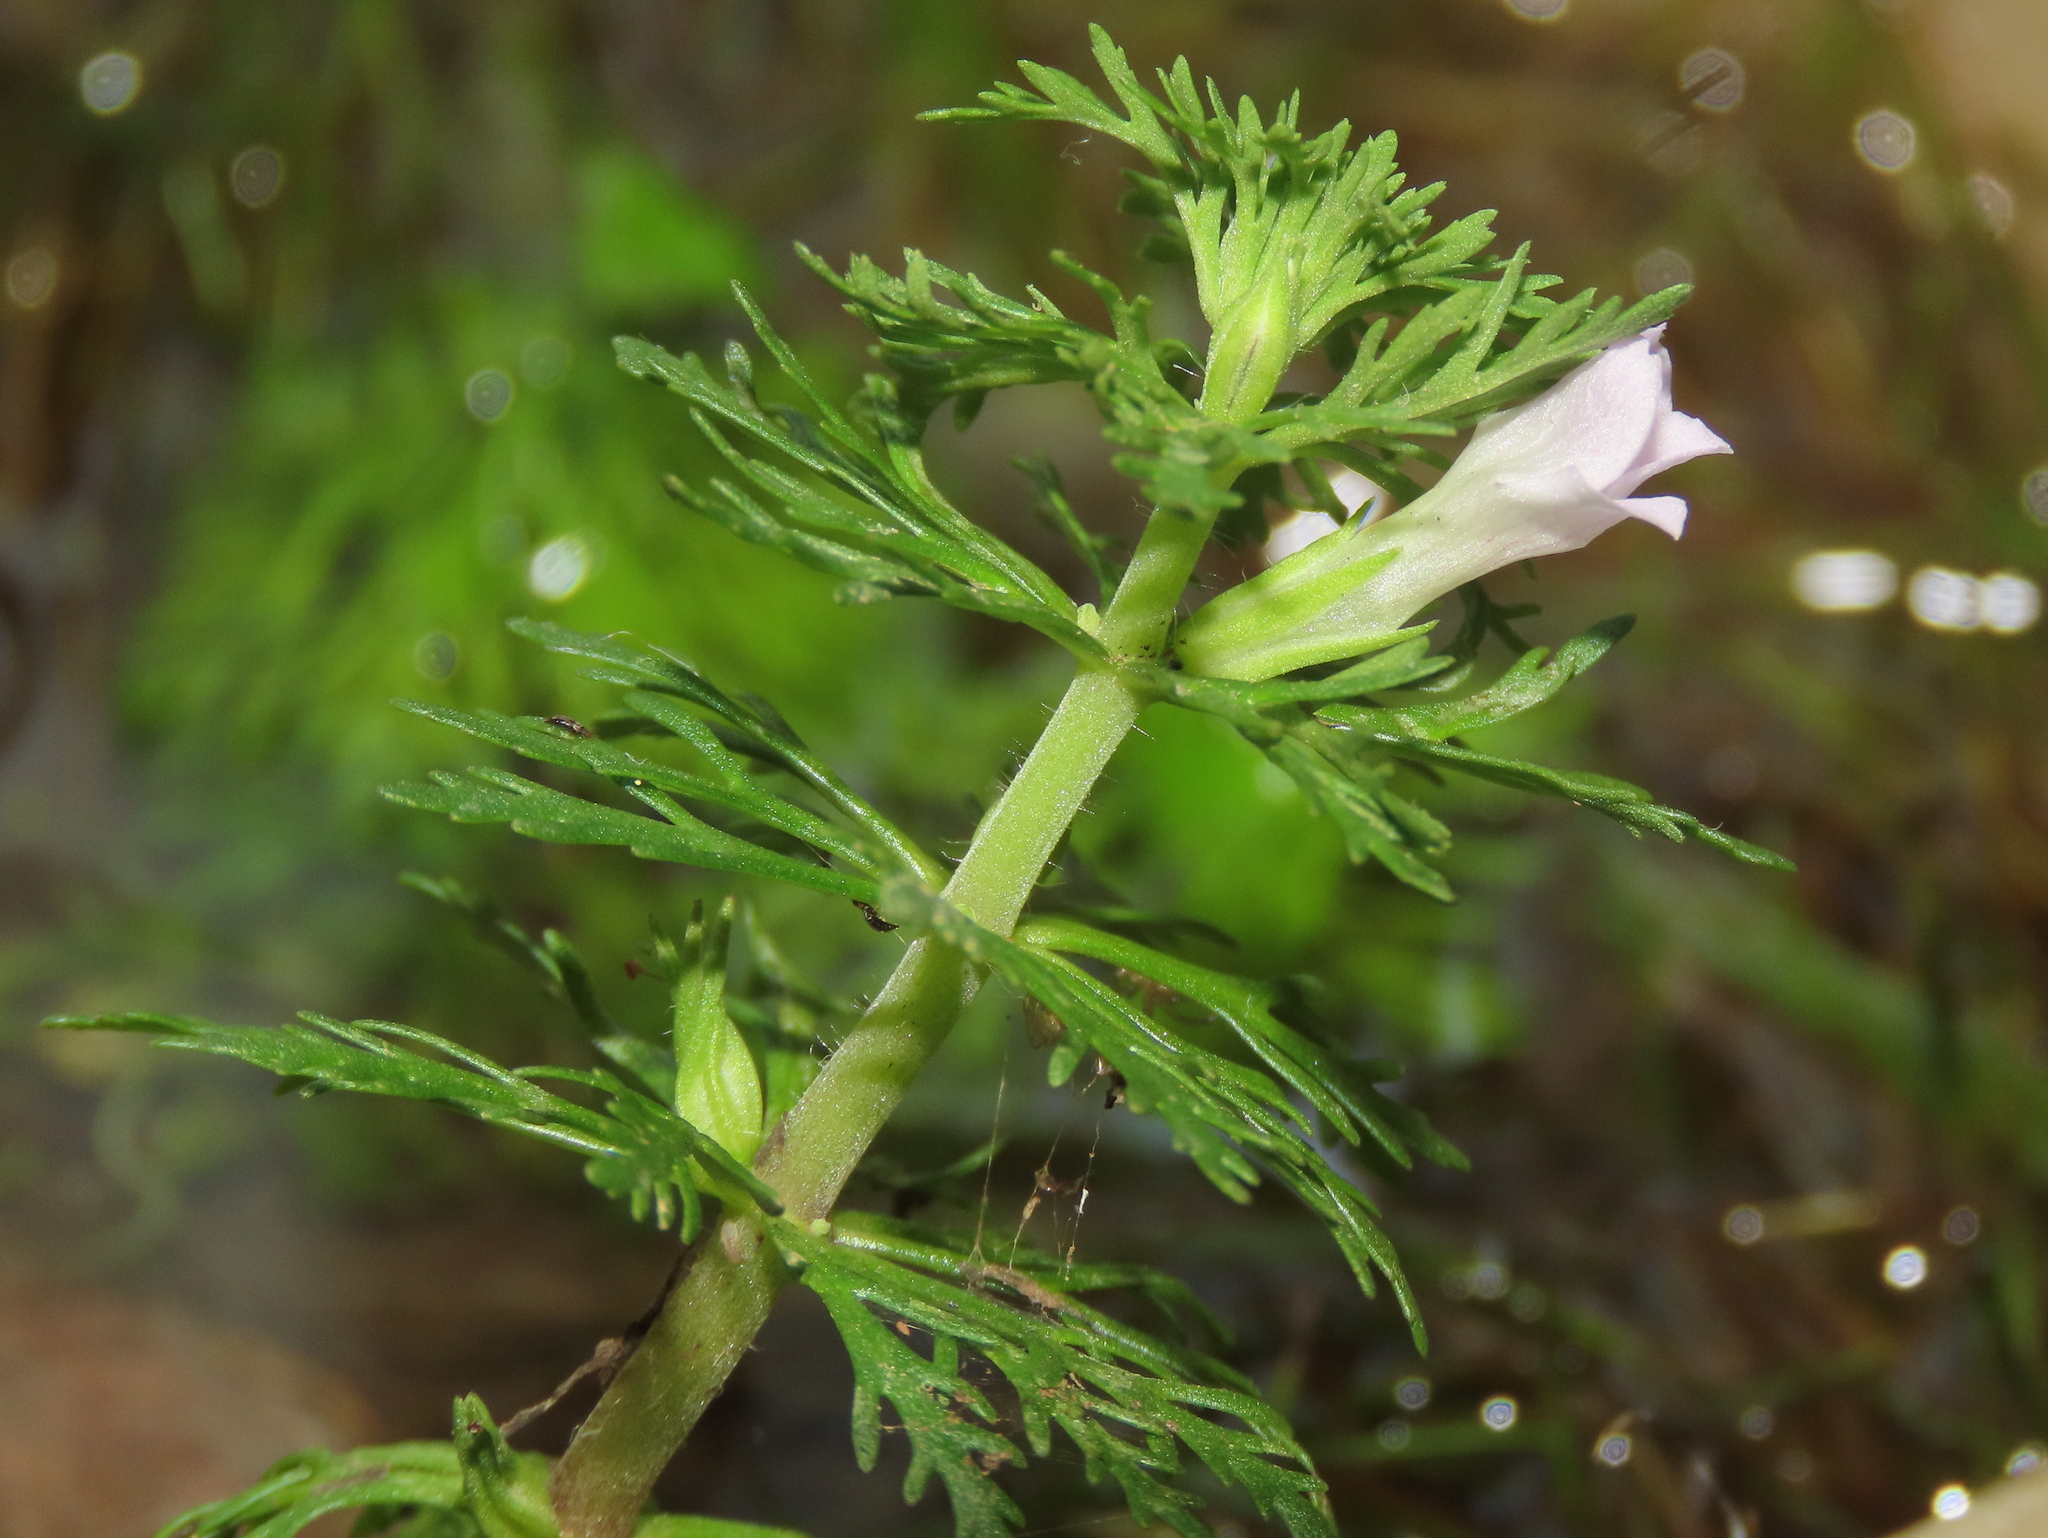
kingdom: Plantae
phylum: Tracheophyta
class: Magnoliopsida
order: Lamiales
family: Plantaginaceae
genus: Limnophila
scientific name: Limnophila sessiliflora
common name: Asian marshweed
